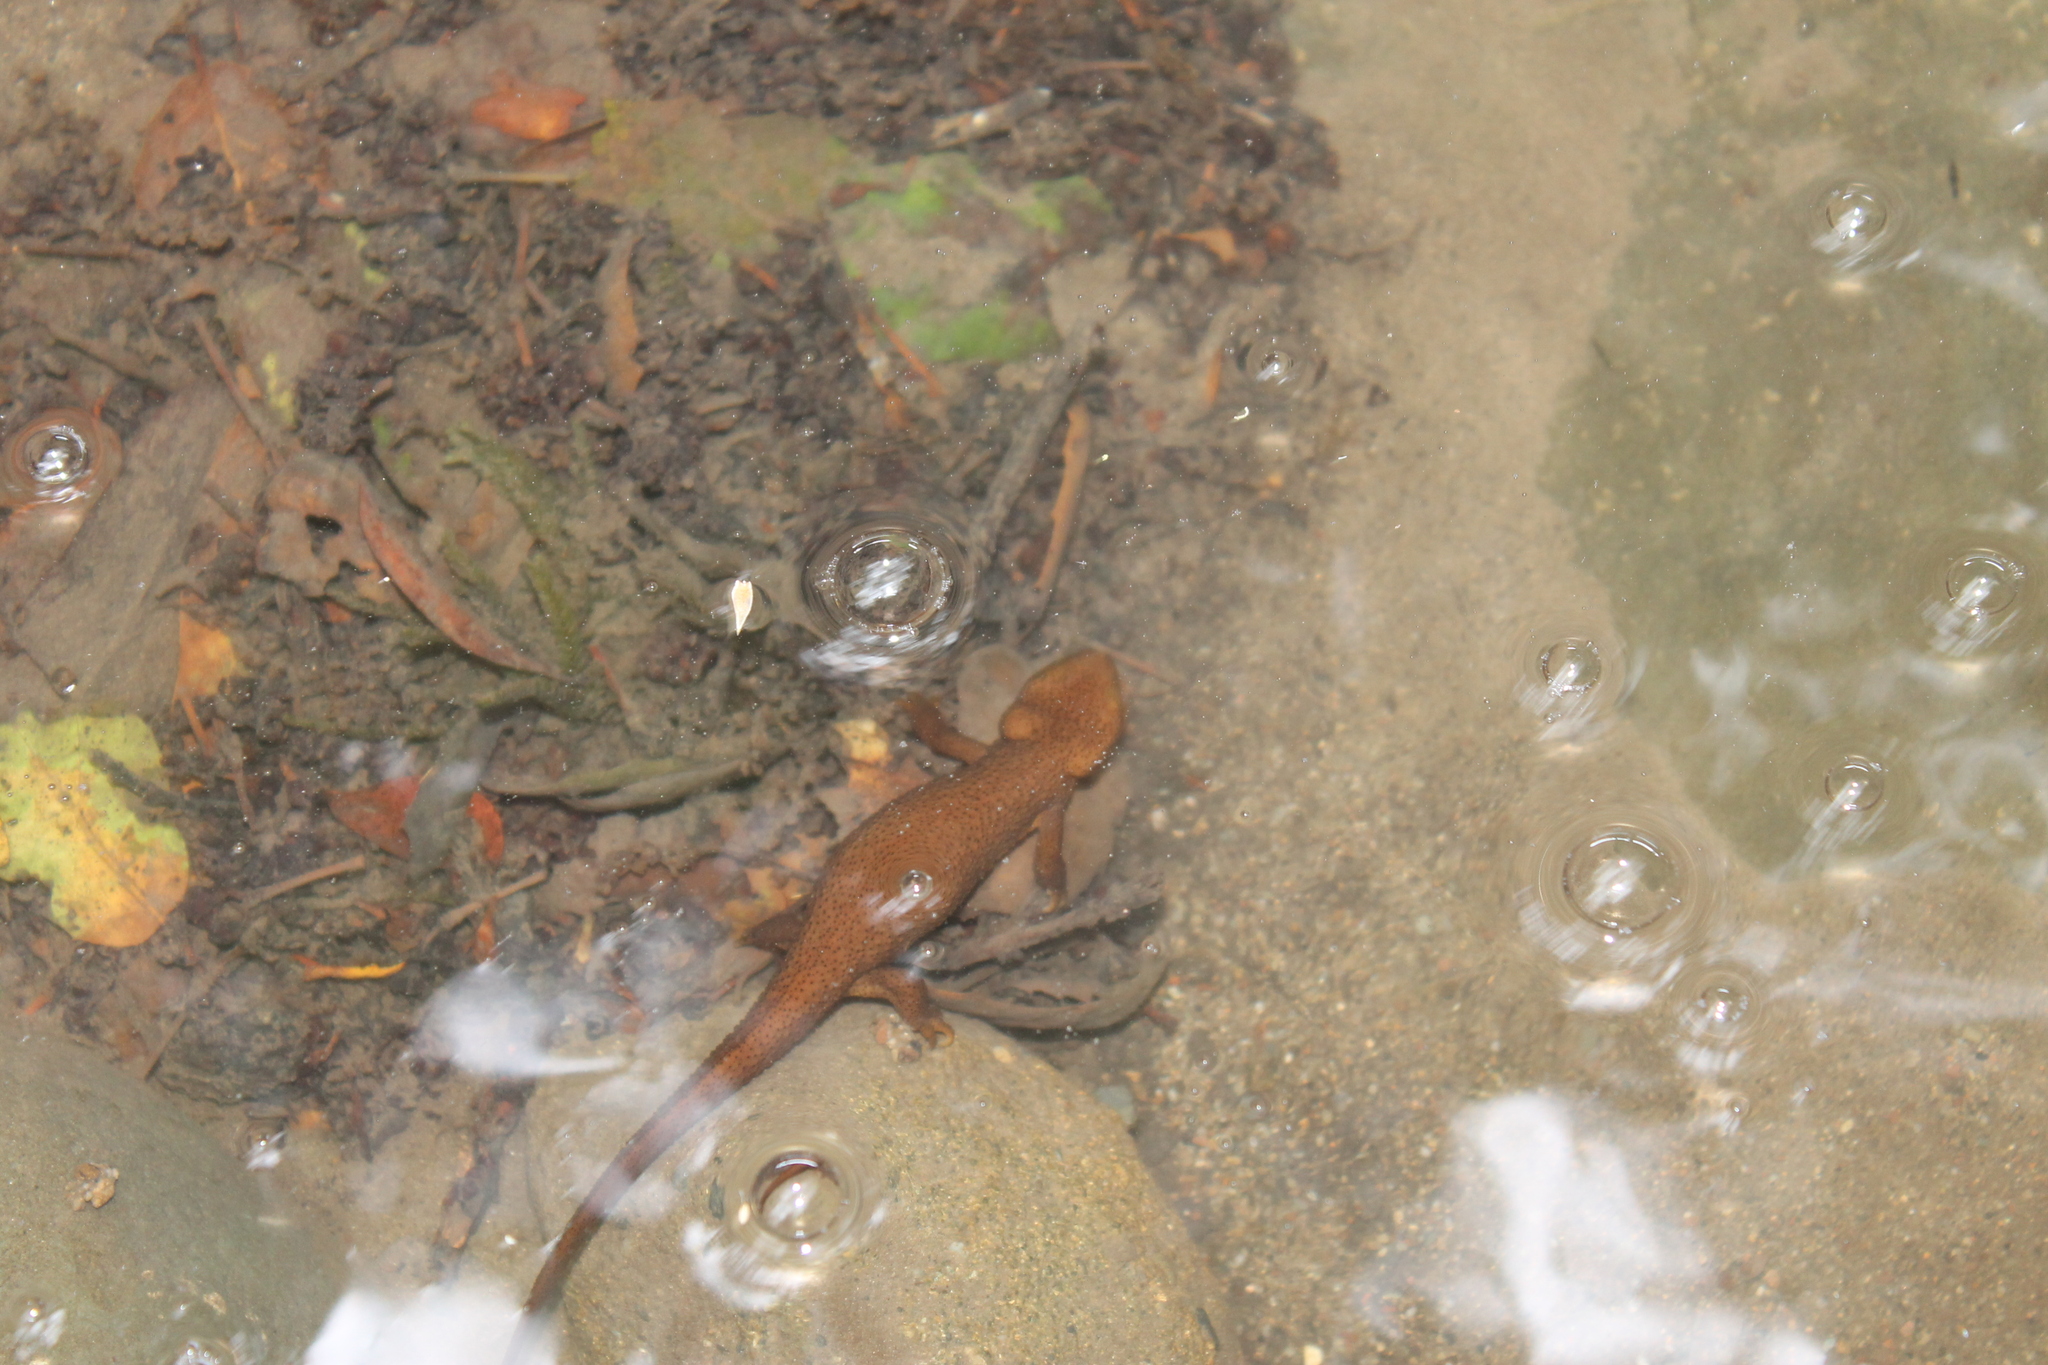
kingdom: Animalia
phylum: Chordata
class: Amphibia
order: Caudata
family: Salamandridae
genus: Taricha
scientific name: Taricha granulosa
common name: Roughskin newt
